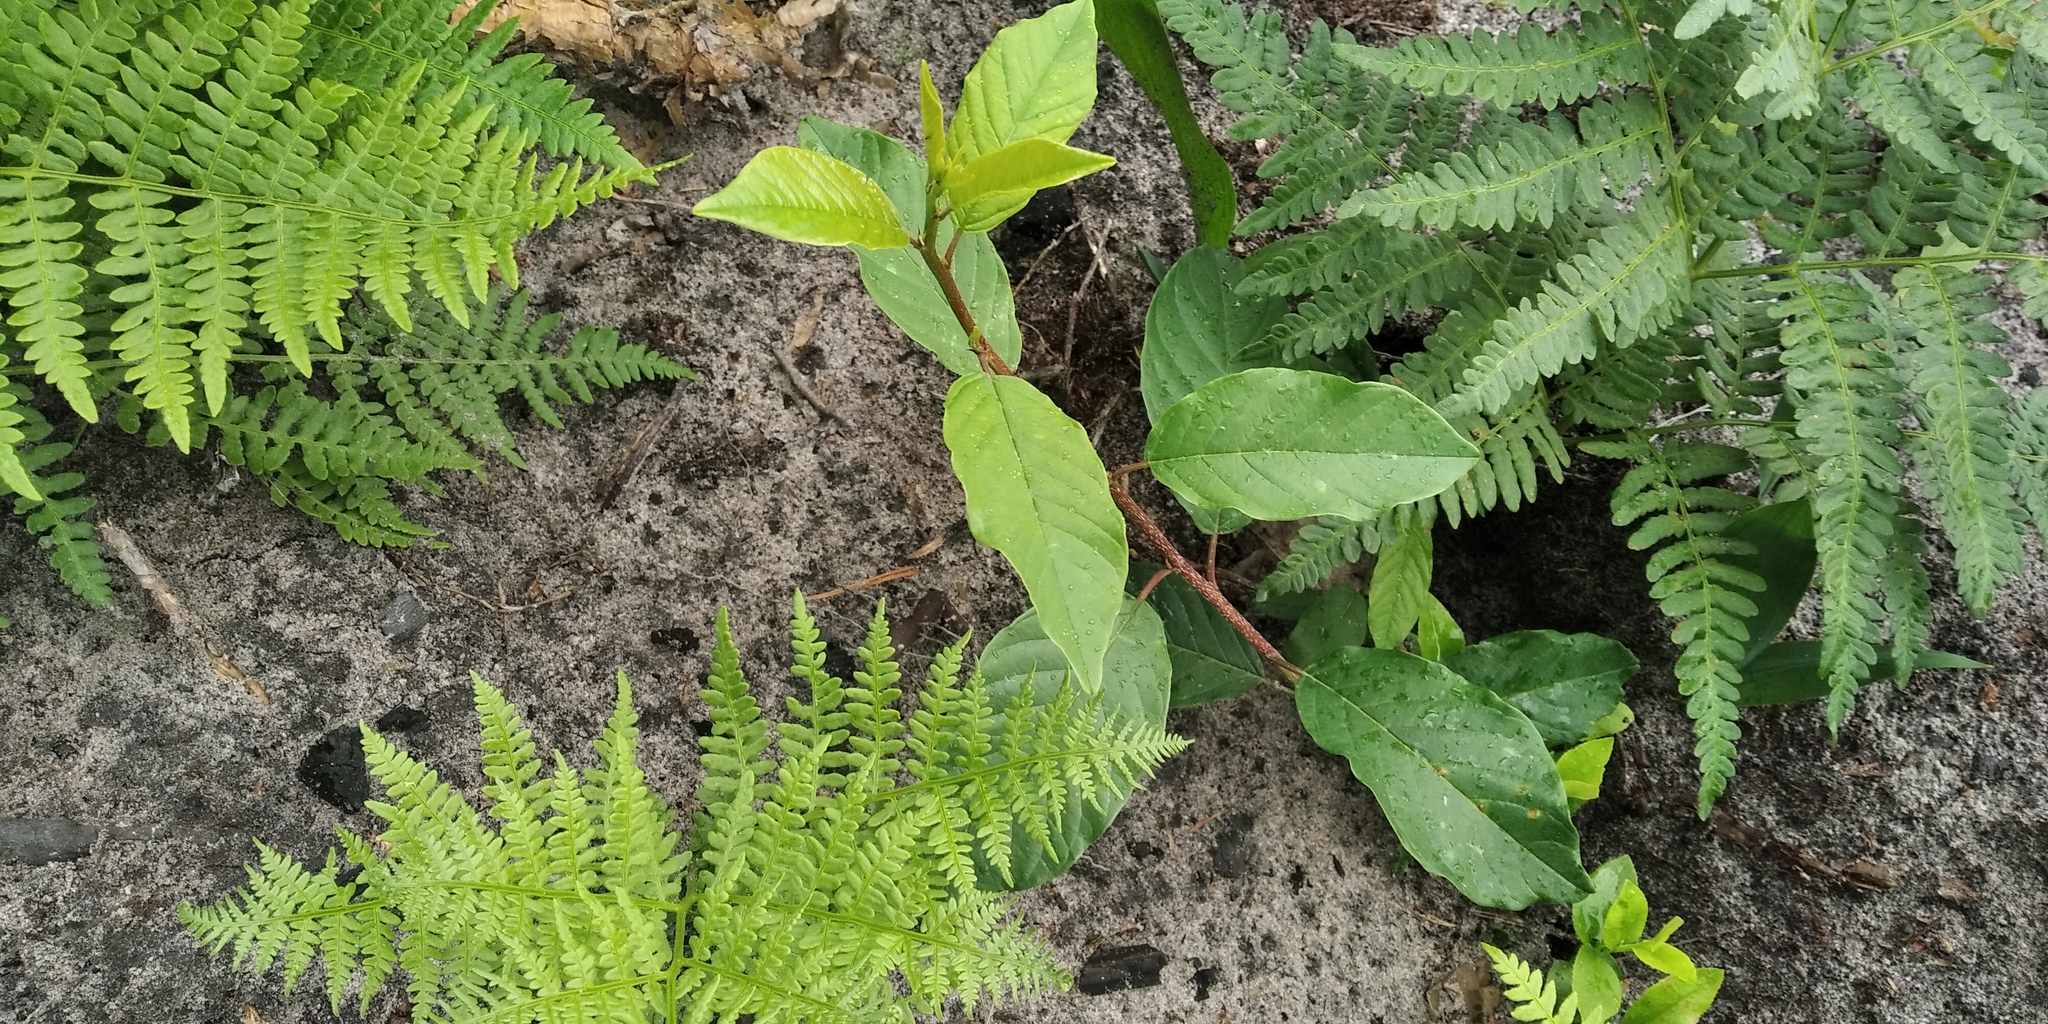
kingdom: Plantae
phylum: Tracheophyta
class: Magnoliopsida
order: Rosales
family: Rosaceae
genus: Prunus
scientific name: Prunus padus
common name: Bird cherry
